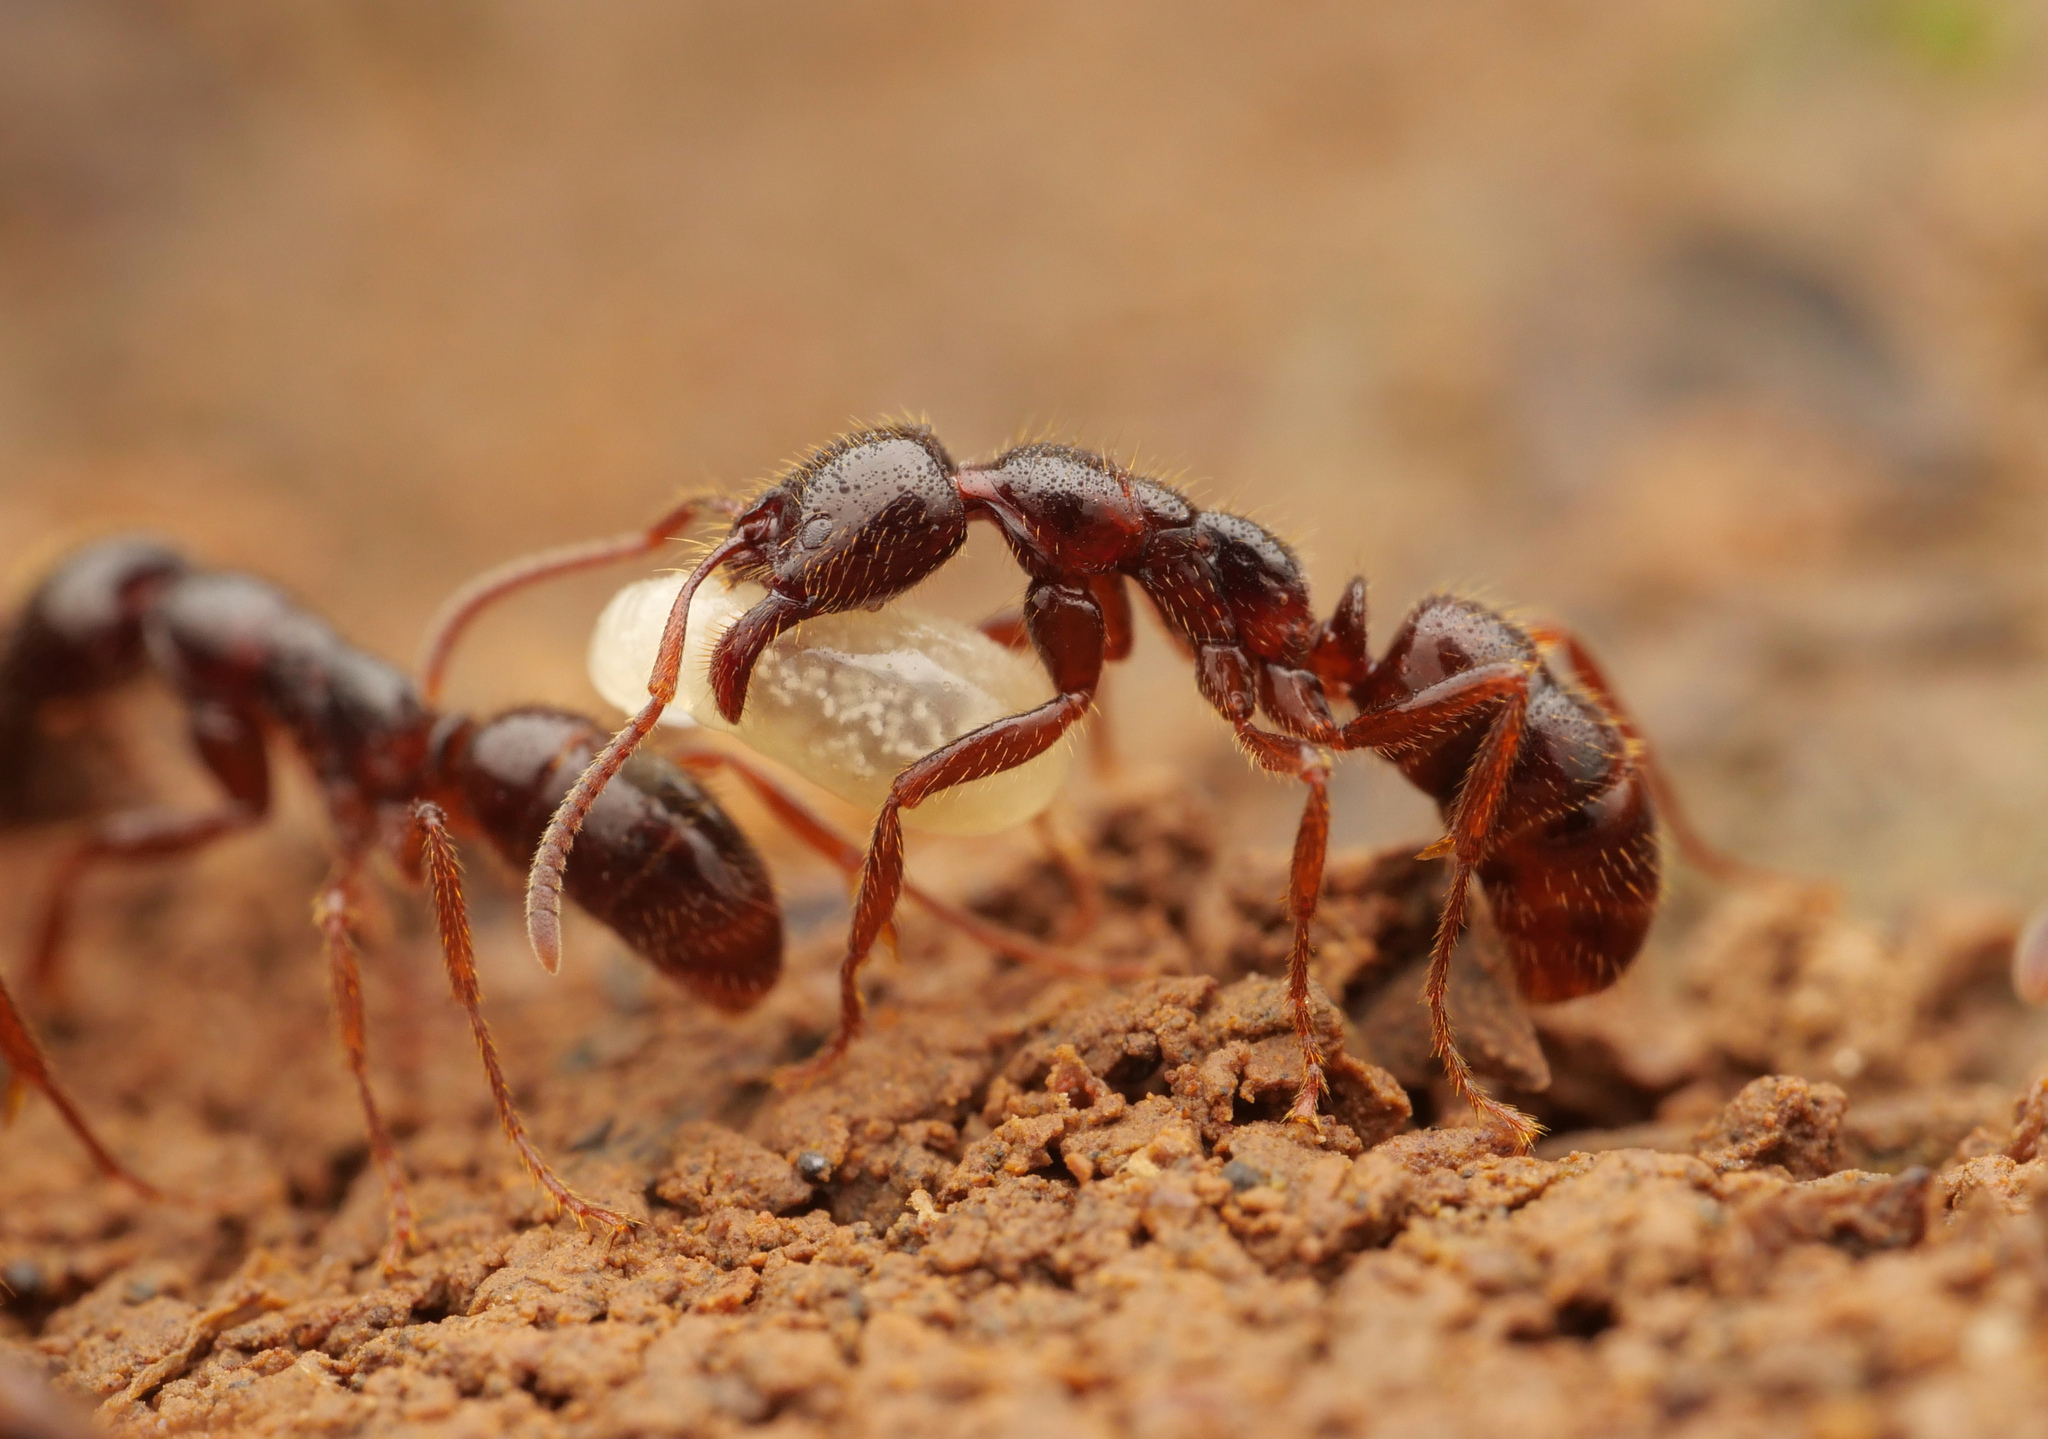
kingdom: Animalia
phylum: Arthropoda
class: Insecta
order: Hymenoptera
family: Formicidae
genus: Leptogenys
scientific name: Leptogenys breviceps
